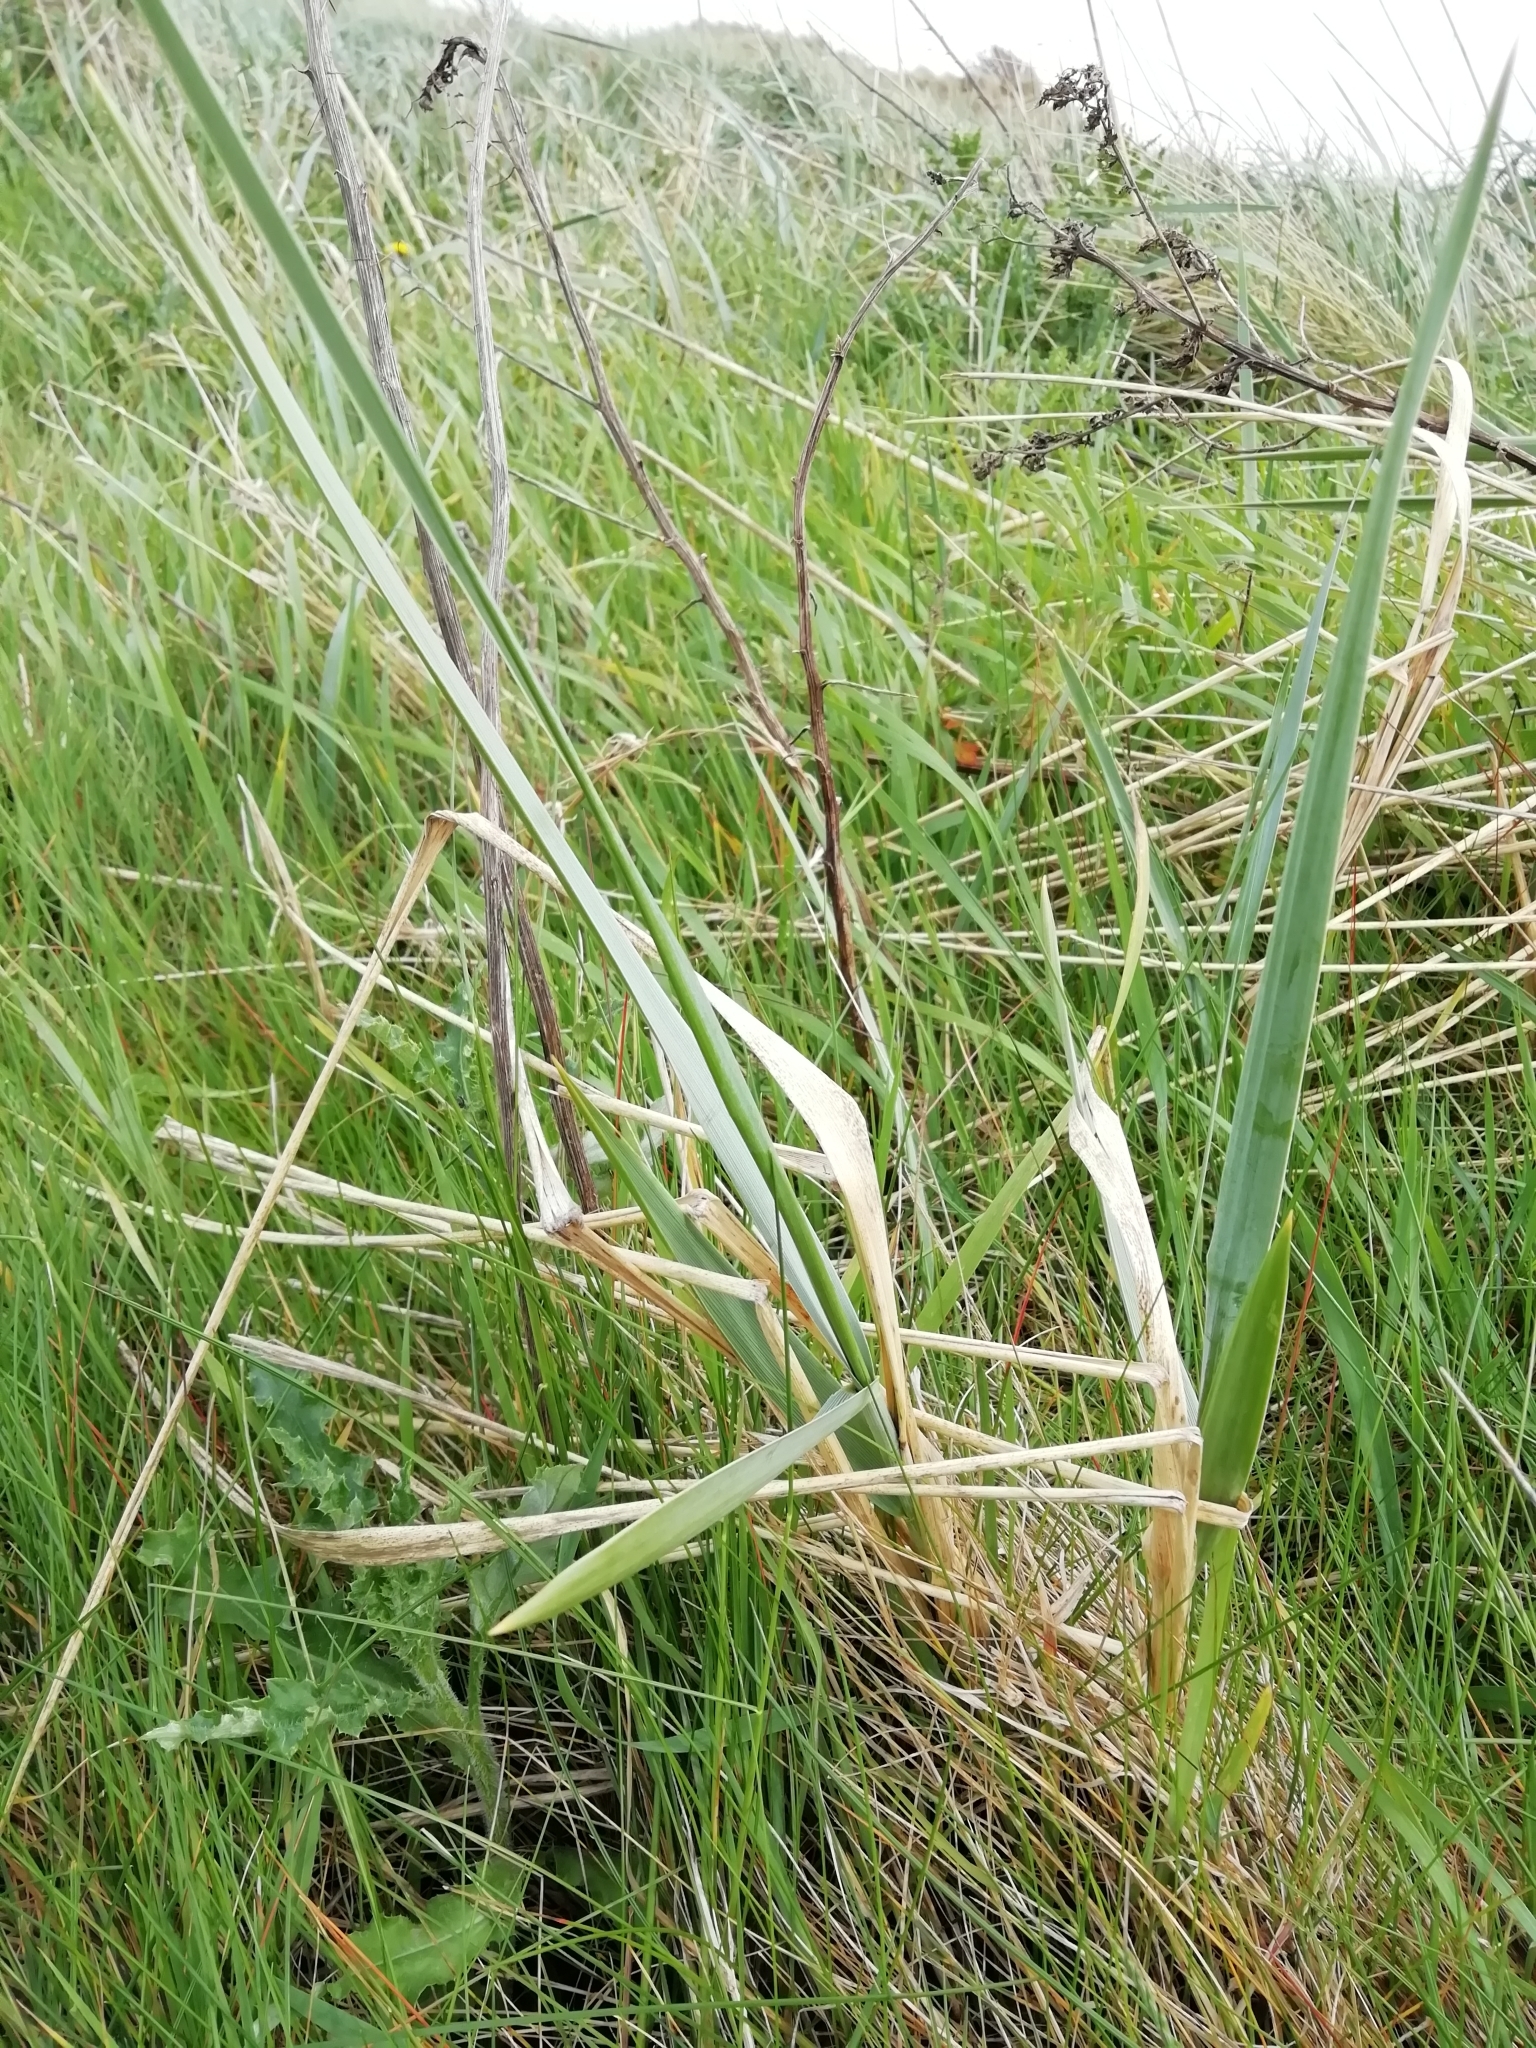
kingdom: Plantae
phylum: Tracheophyta
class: Liliopsida
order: Poales
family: Poaceae
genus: Leymus
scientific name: Leymus arenarius
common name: Lyme-grass
